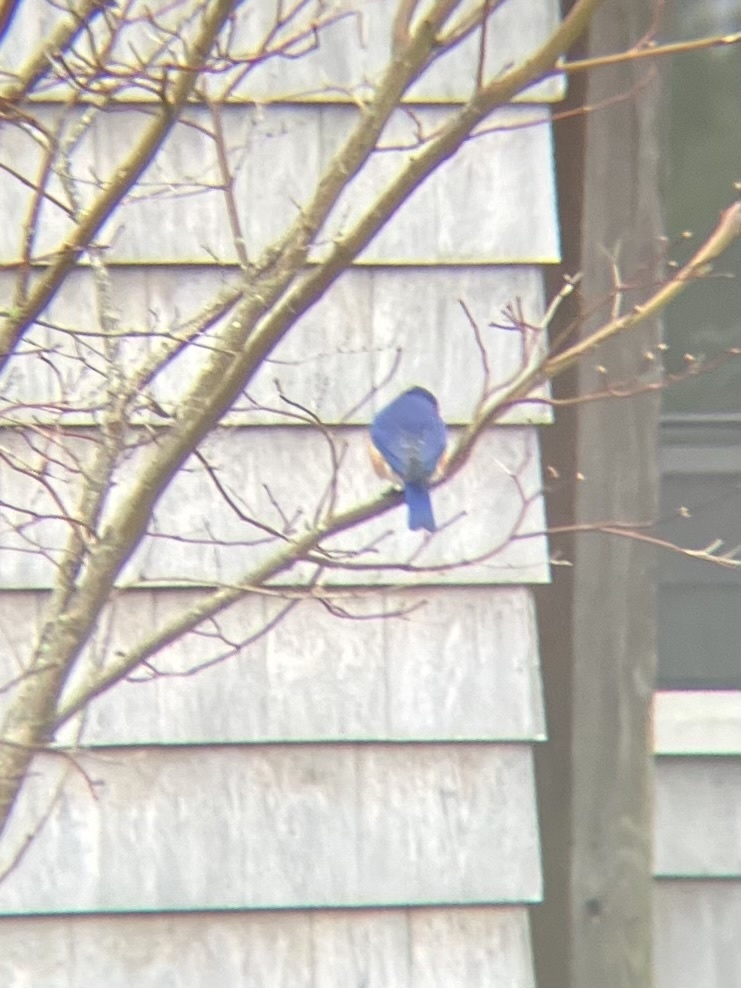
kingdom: Animalia
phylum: Chordata
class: Aves
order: Passeriformes
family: Turdidae
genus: Sialia
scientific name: Sialia sialis
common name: Eastern bluebird
